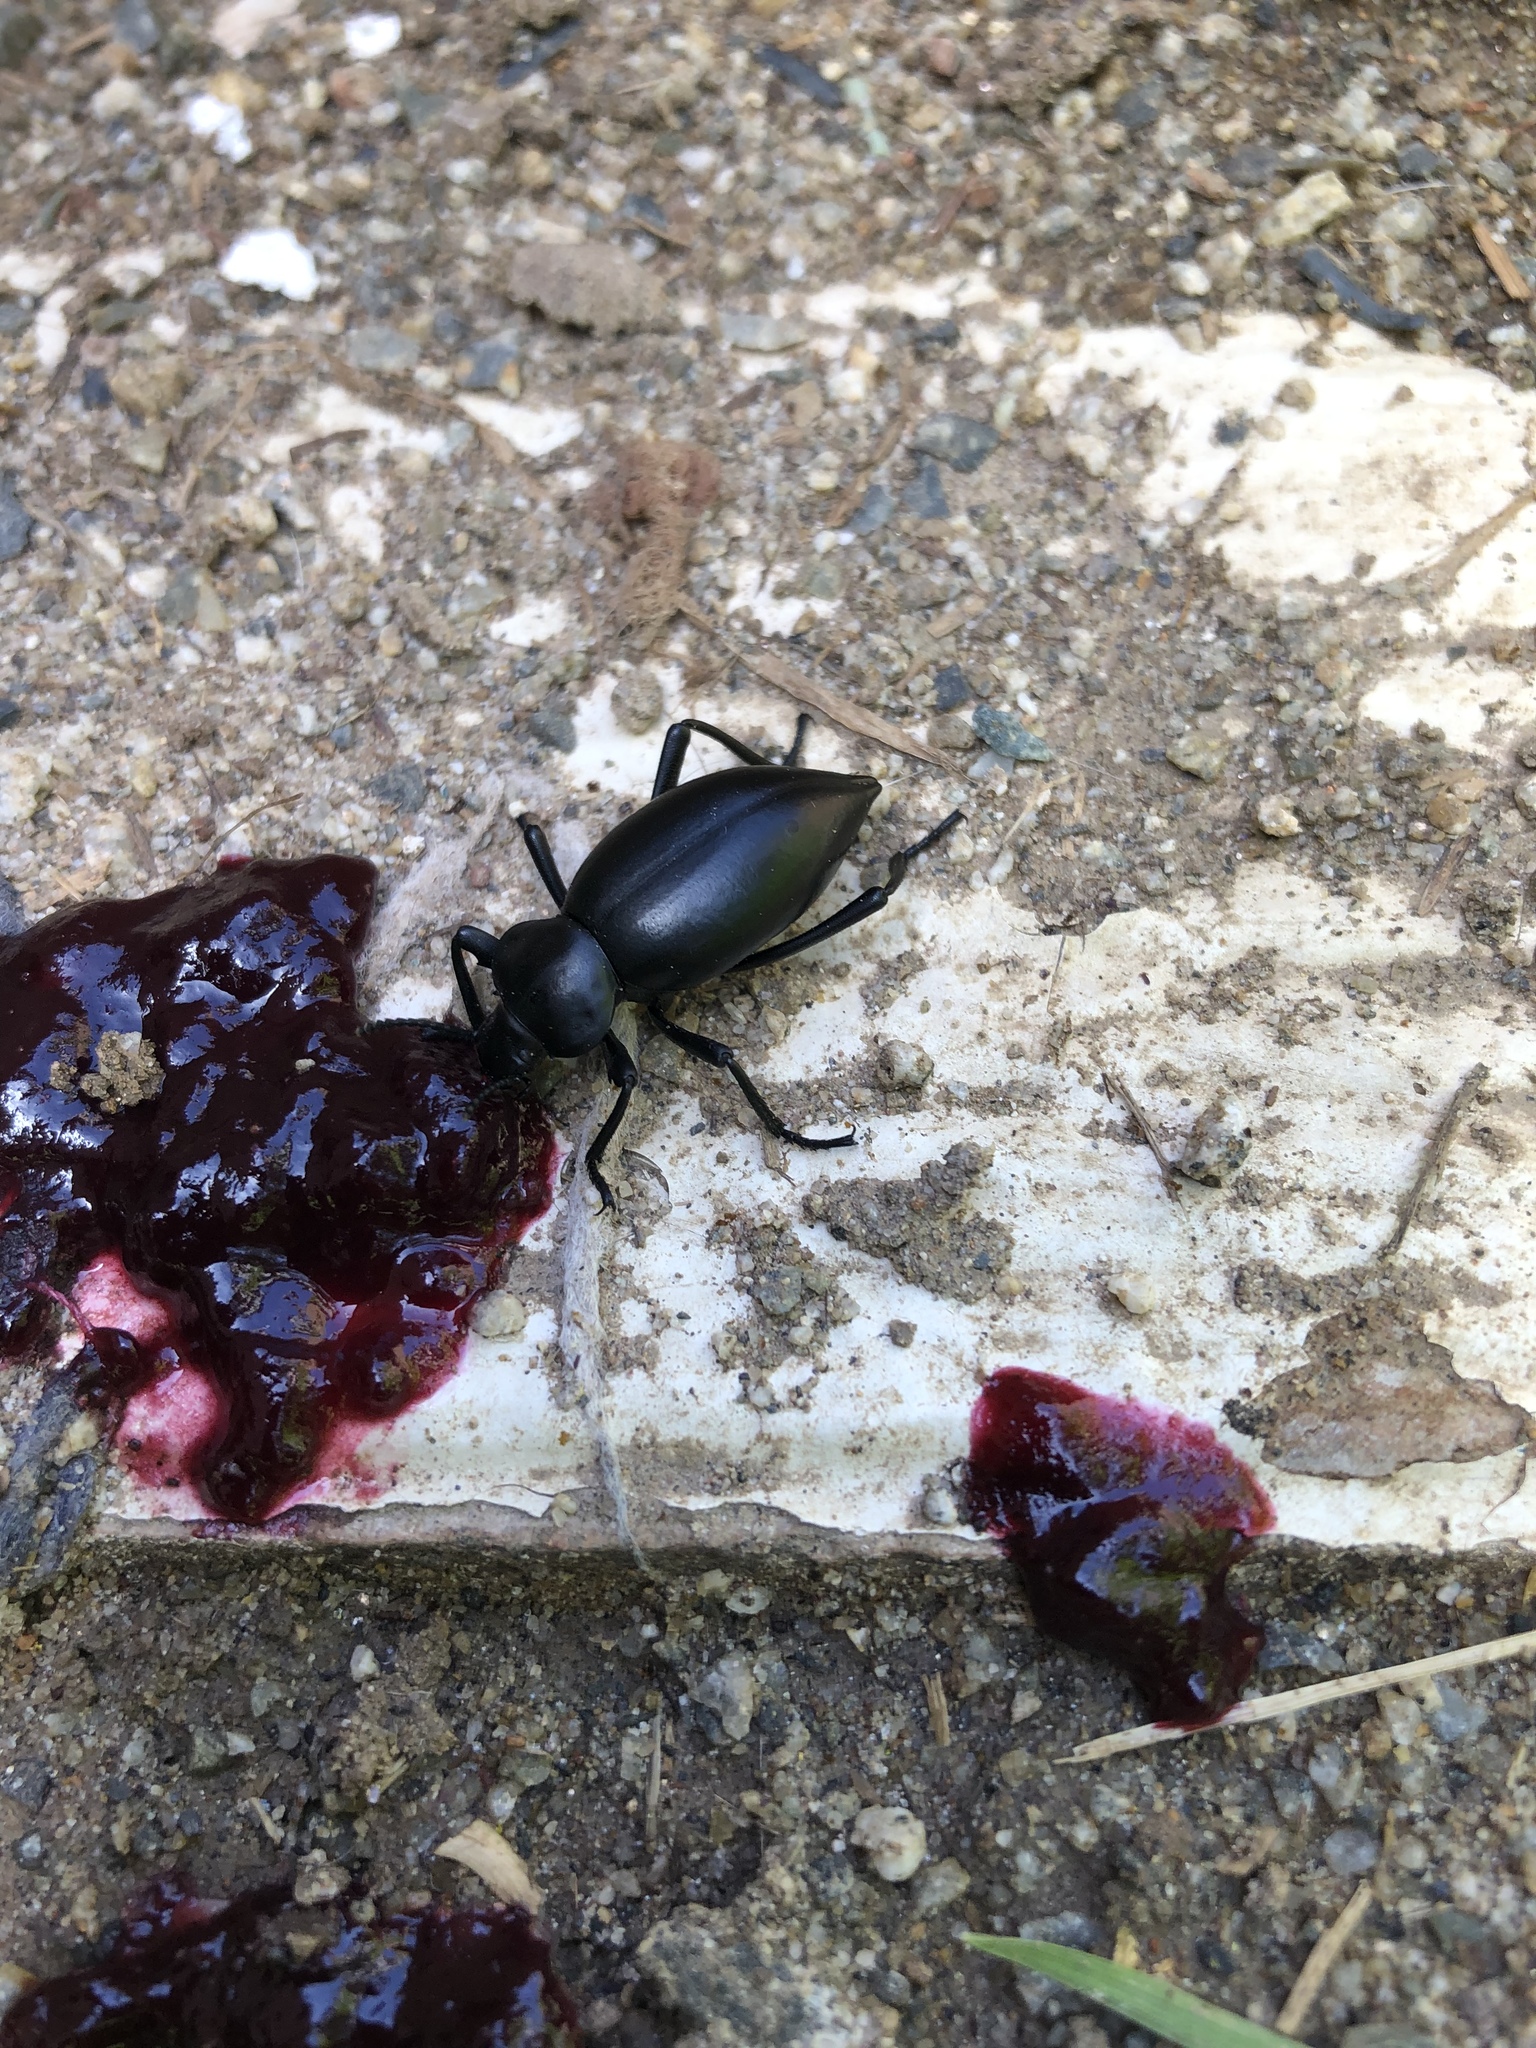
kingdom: Animalia
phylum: Arthropoda
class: Insecta
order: Coleoptera
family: Tenebrionidae
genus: Eleodes
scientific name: Eleodes acuticauda
